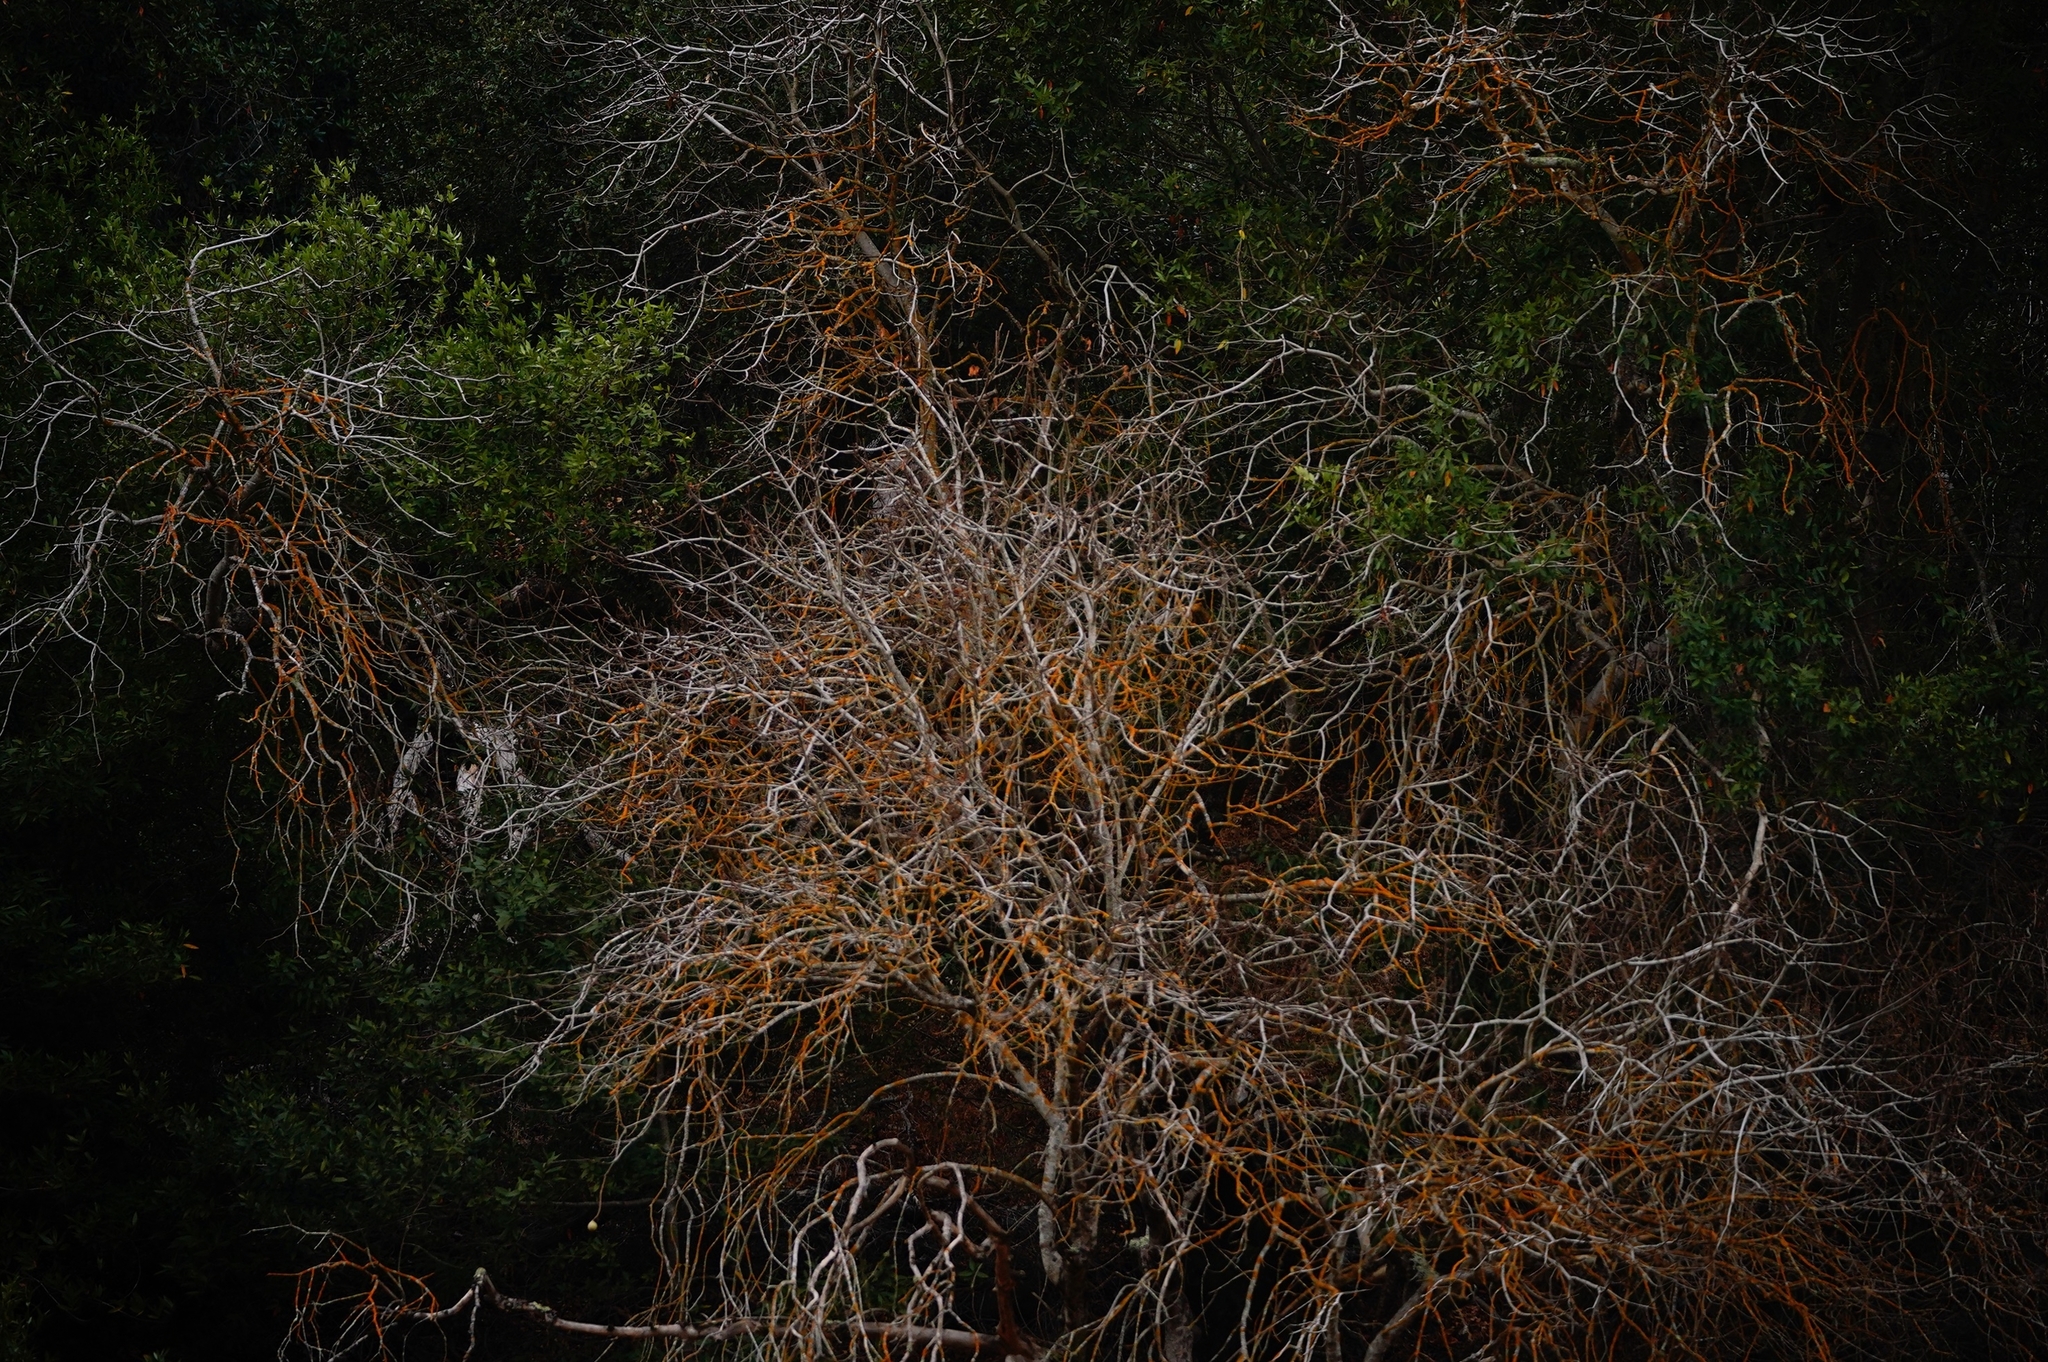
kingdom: Plantae
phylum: Tracheophyta
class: Magnoliopsida
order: Sapindales
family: Sapindaceae
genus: Aesculus
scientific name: Aesculus californica
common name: California buckeye
